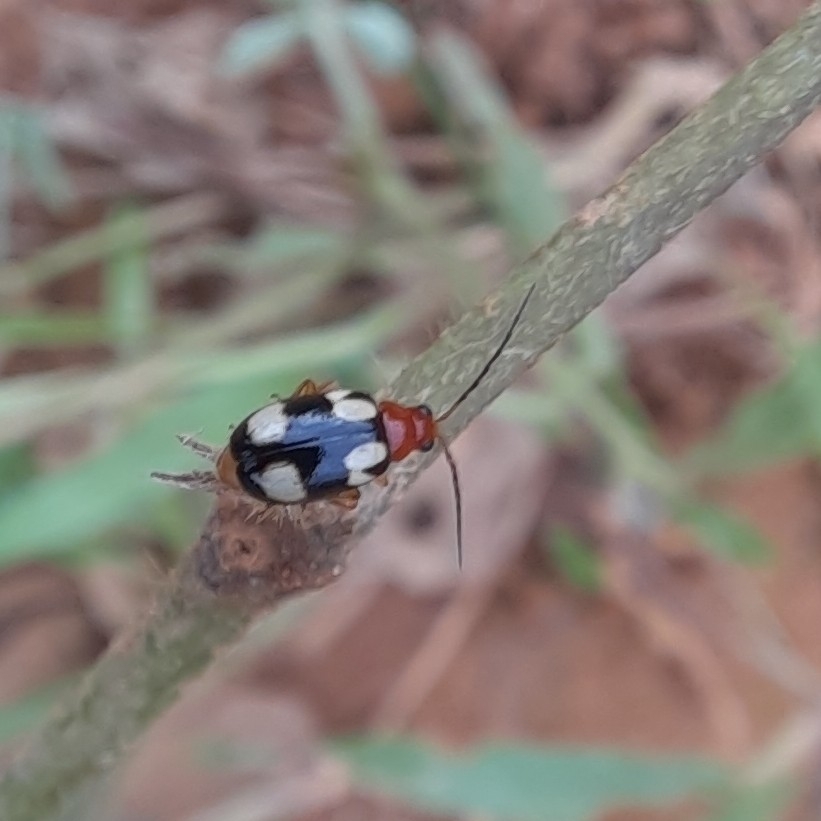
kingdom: Animalia
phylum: Arthropoda
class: Insecta
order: Coleoptera
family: Chrysomelidae
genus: Monolepta
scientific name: Monolepta signata
